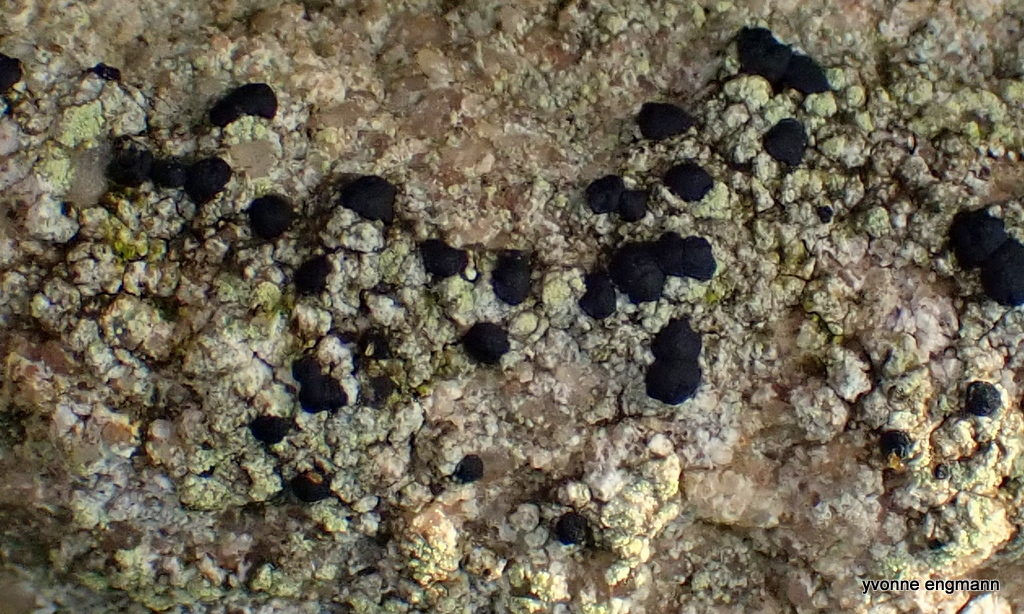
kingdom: Fungi
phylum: Ascomycota
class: Lecanoromycetes
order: Lecanorales
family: Lecanoraceae
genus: Lecidella
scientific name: Lecidella scabra
